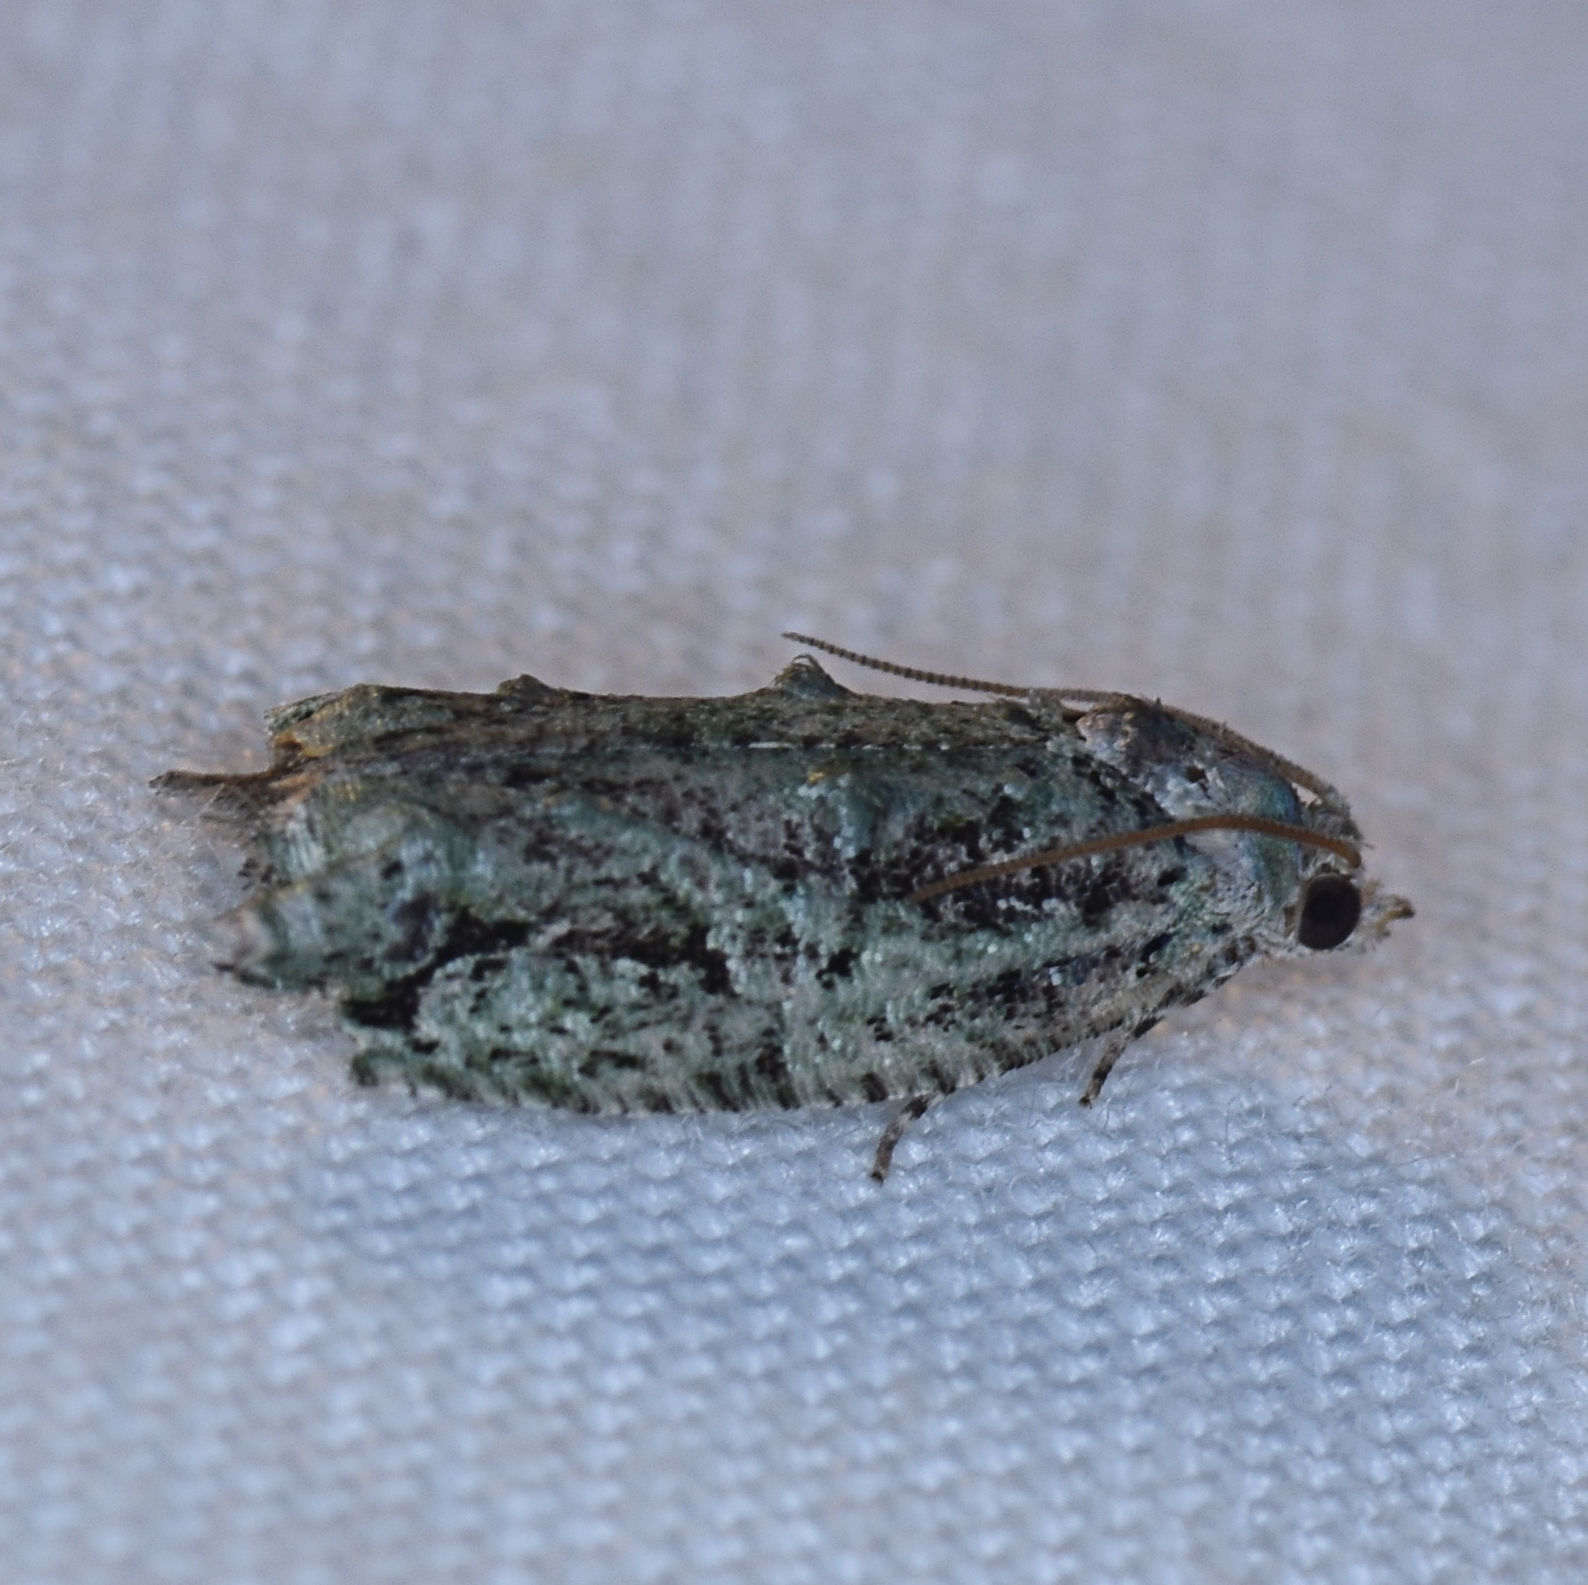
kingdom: Animalia
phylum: Arthropoda
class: Insecta
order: Lepidoptera
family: Tortricidae
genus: Proteoteras
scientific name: Proteoteras moffatiana
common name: Maple bud borer moth
